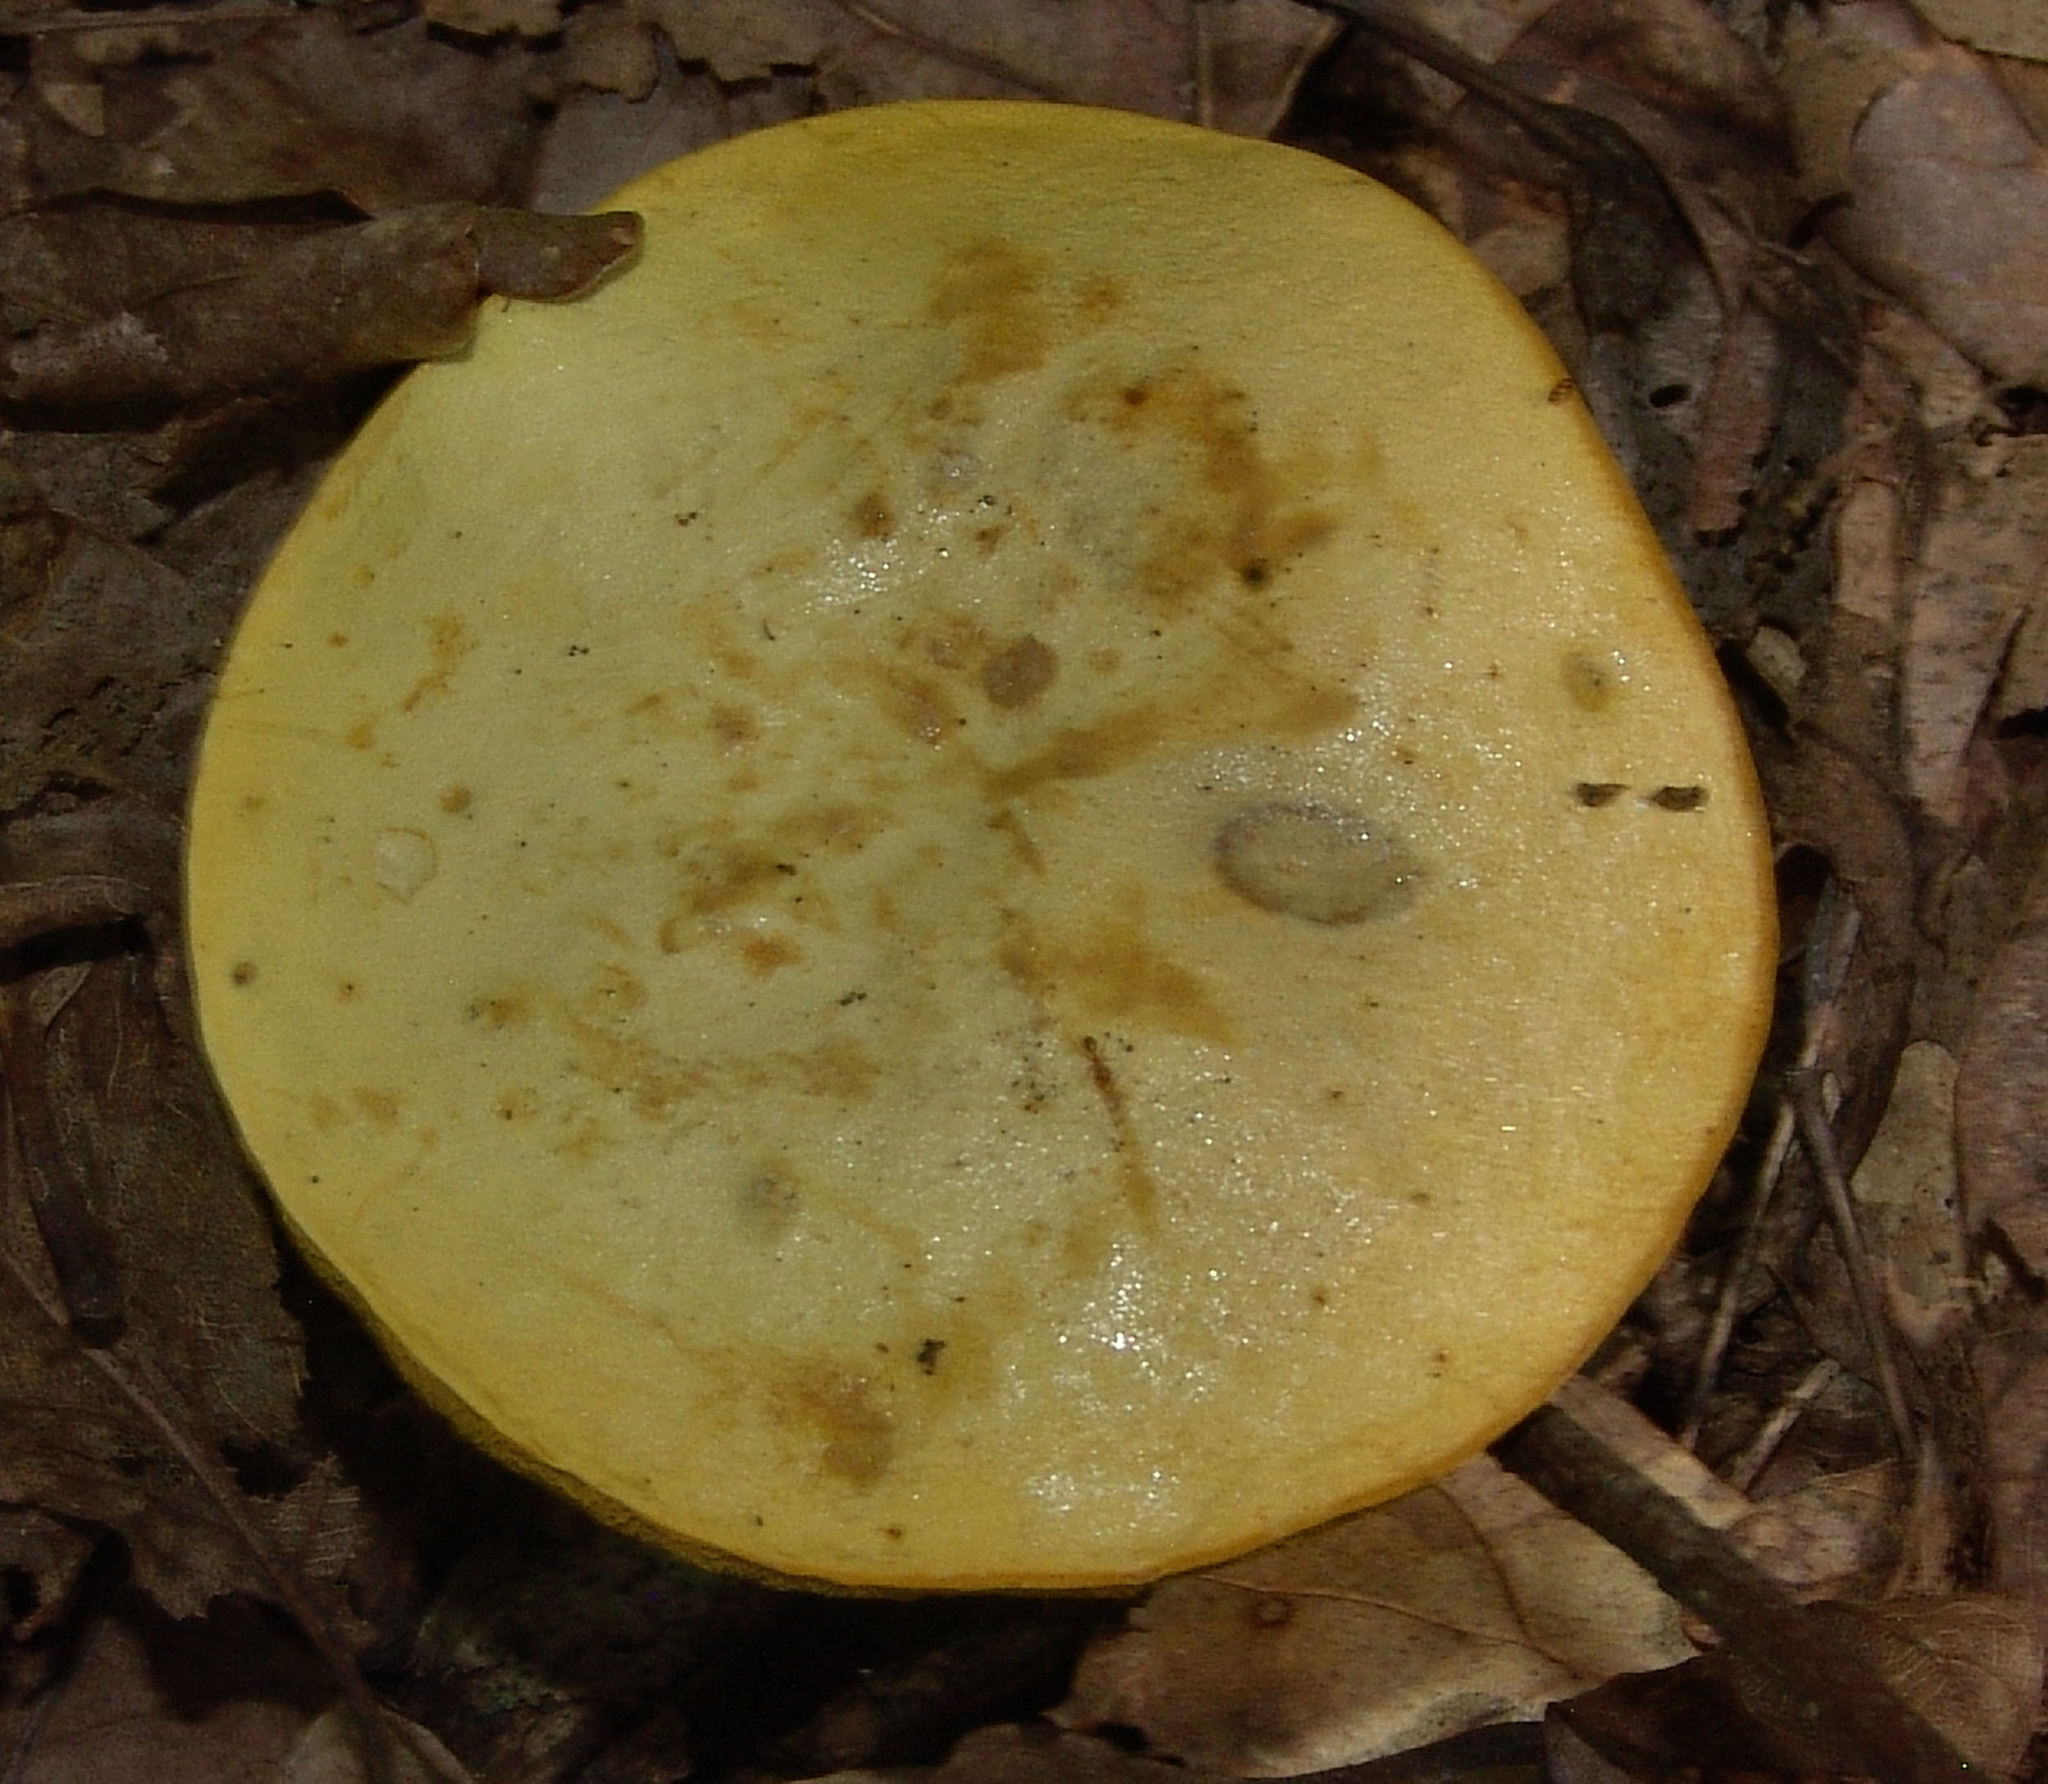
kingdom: Fungi
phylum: Basidiomycota
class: Agaricomycetes
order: Boletales
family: Boletaceae
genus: Retiboletus
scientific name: Retiboletus ornatipes
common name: Ornate-stalked bolete
